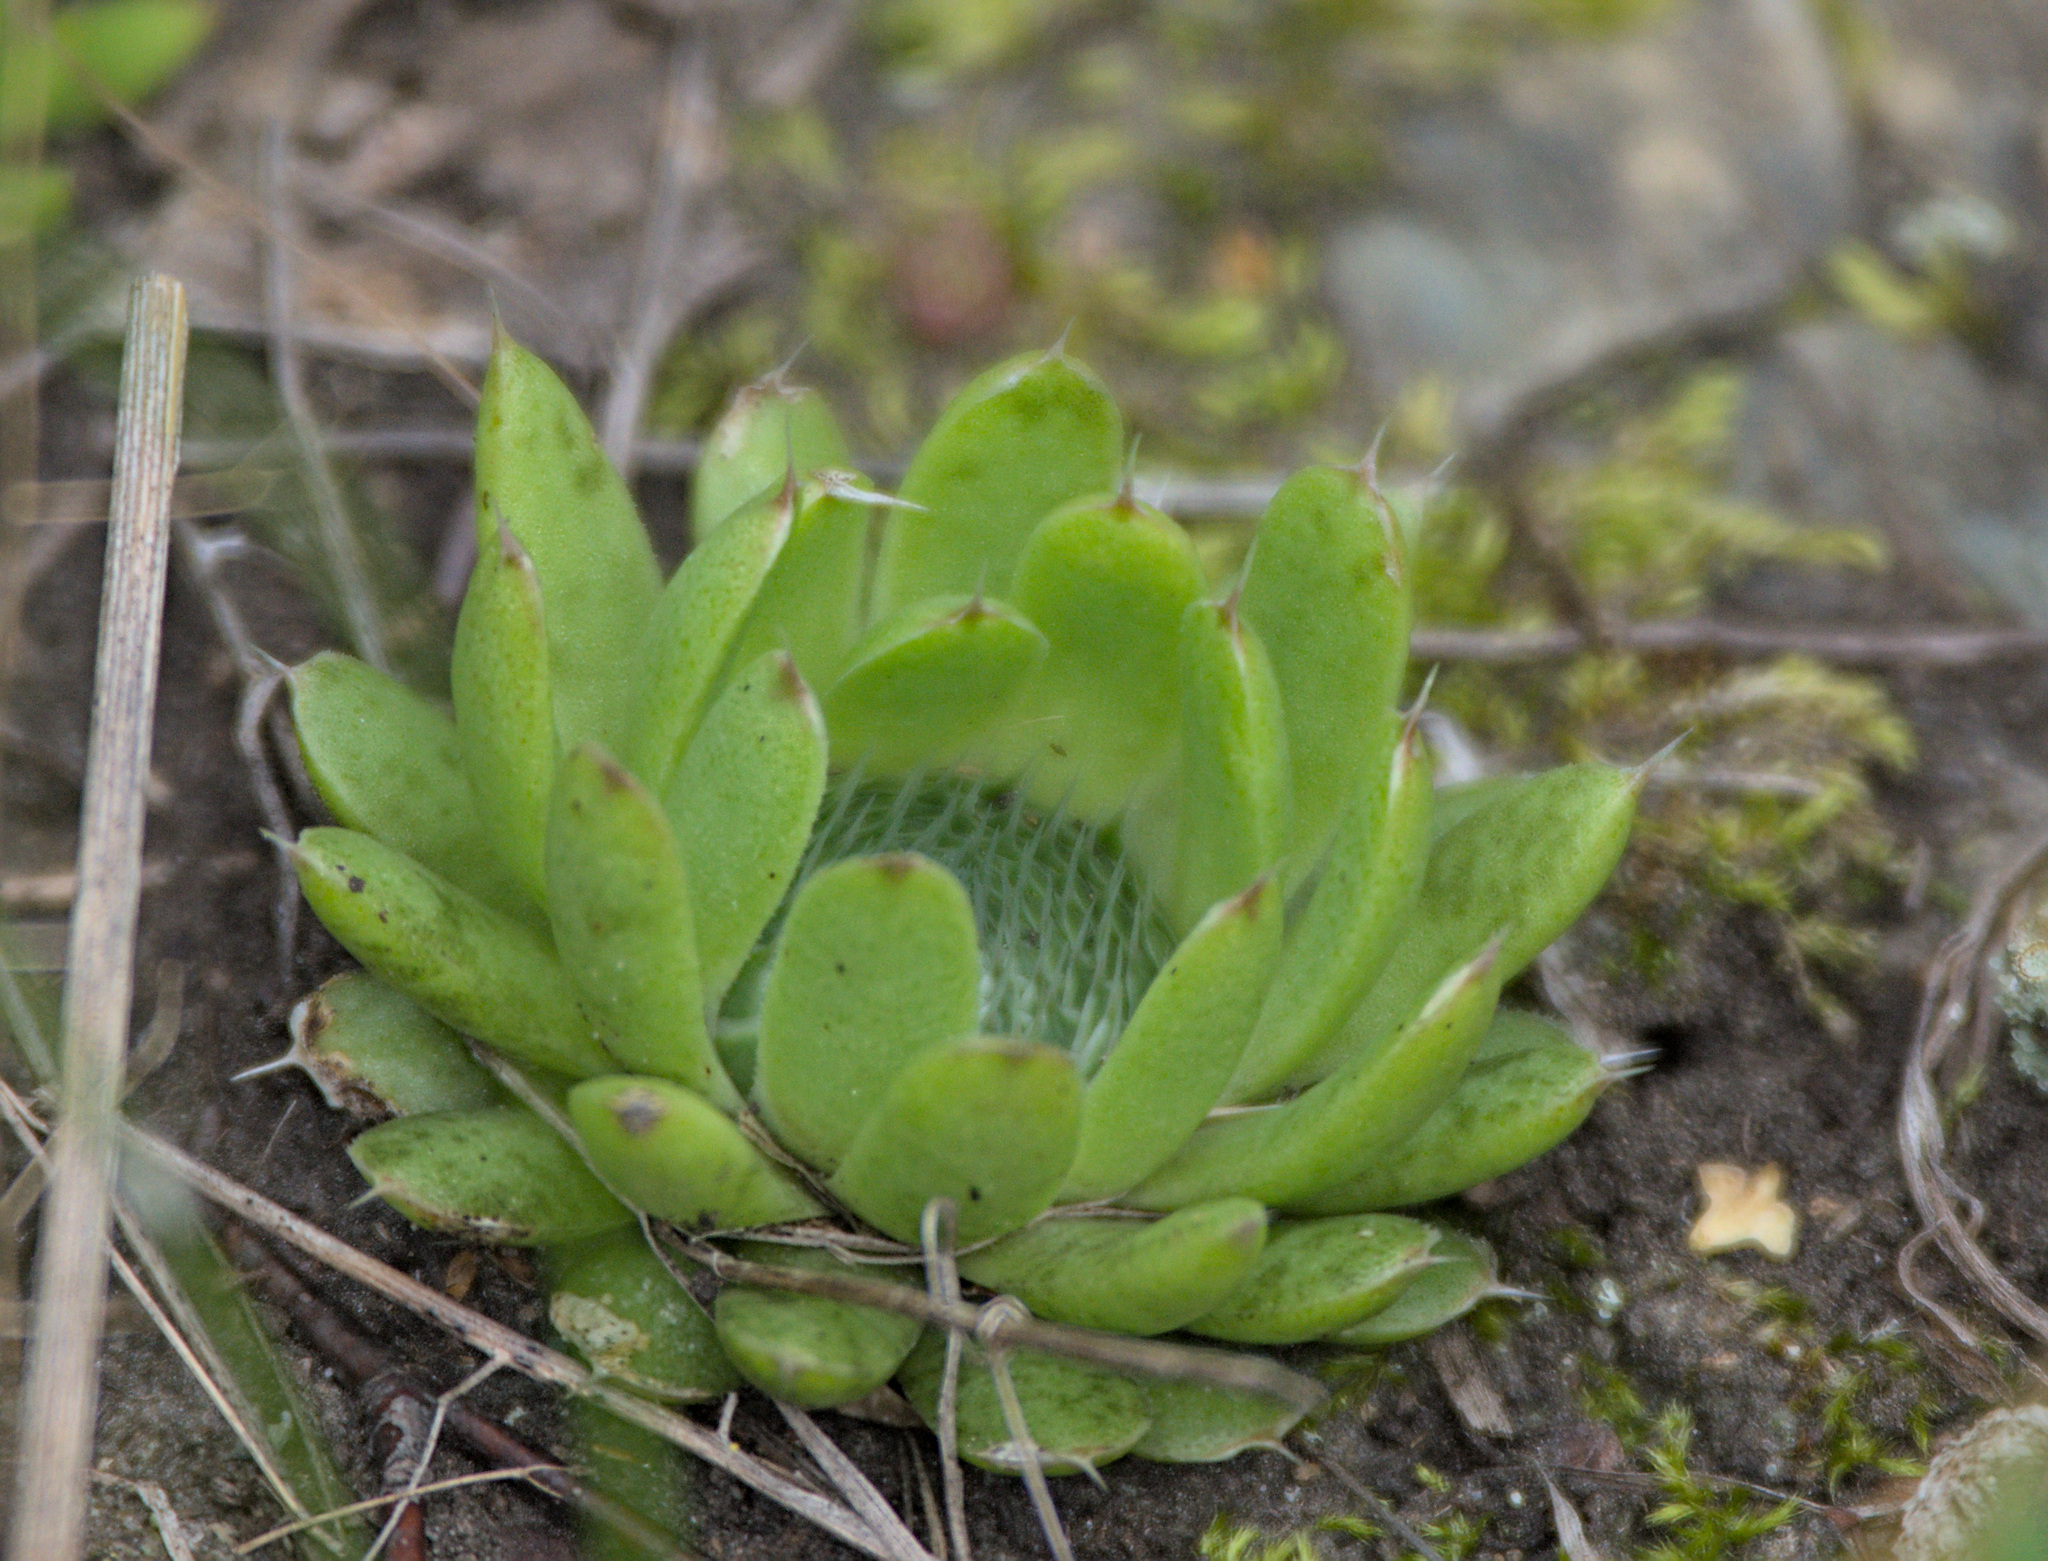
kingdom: Plantae
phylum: Tracheophyta
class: Magnoliopsida
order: Saxifragales
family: Crassulaceae
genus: Orostachys
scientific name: Orostachys spinosa
